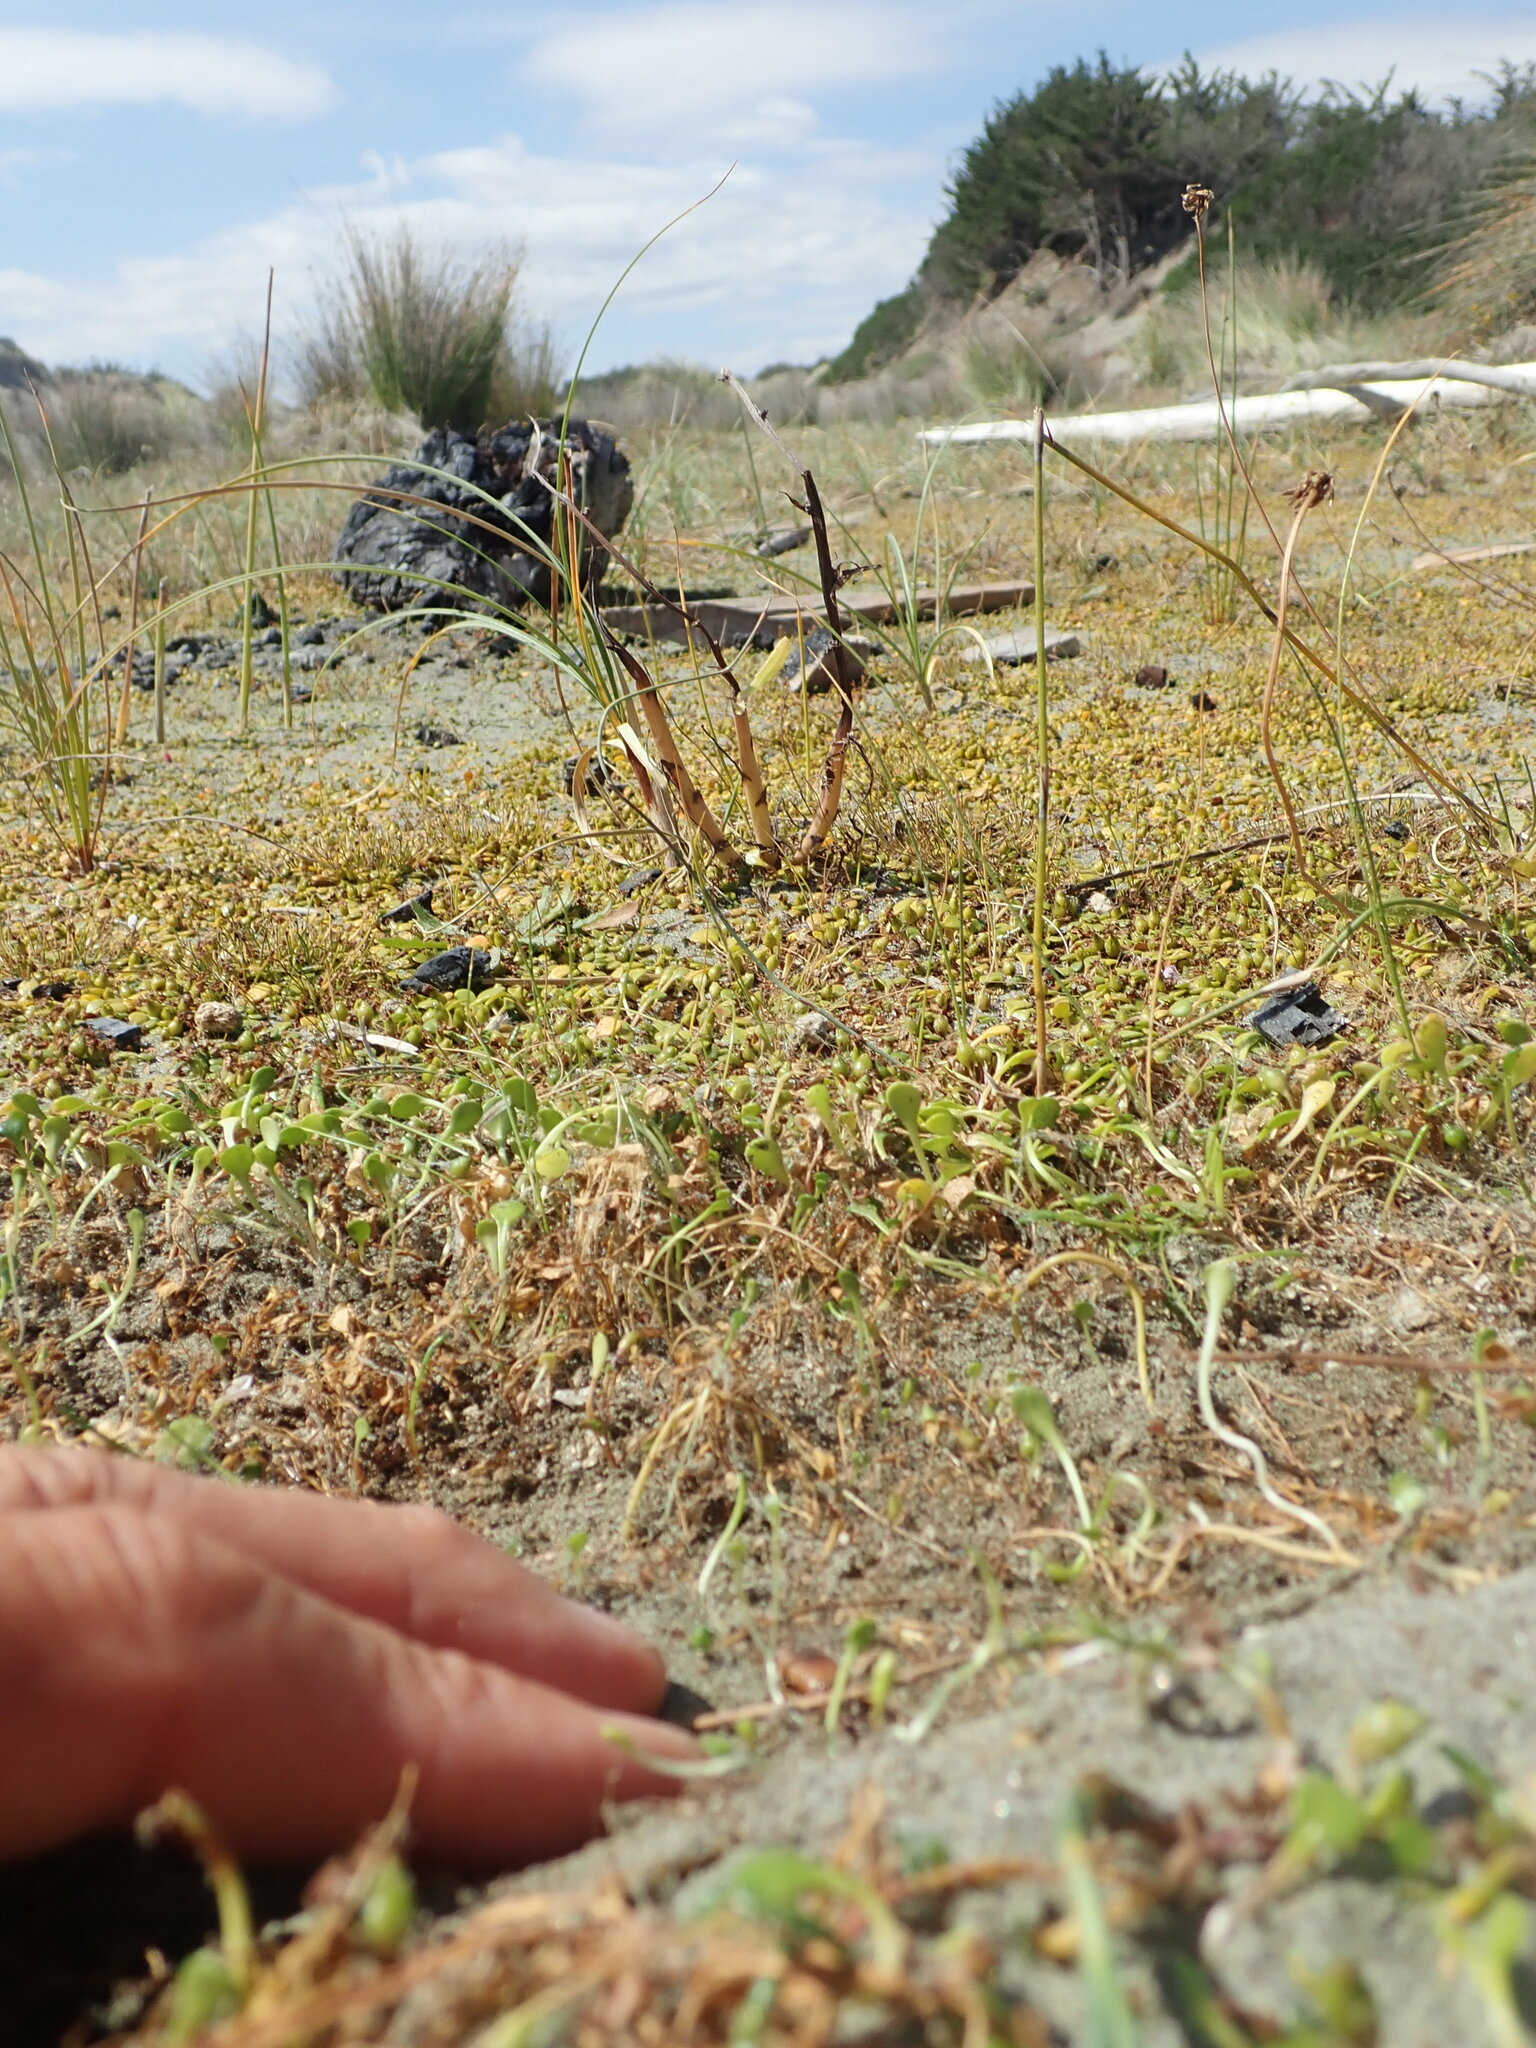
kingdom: Animalia
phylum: Arthropoda
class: Insecta
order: Dermaptera
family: Labiduridae
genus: Labidura
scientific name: Labidura riparia
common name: Striped earwig
